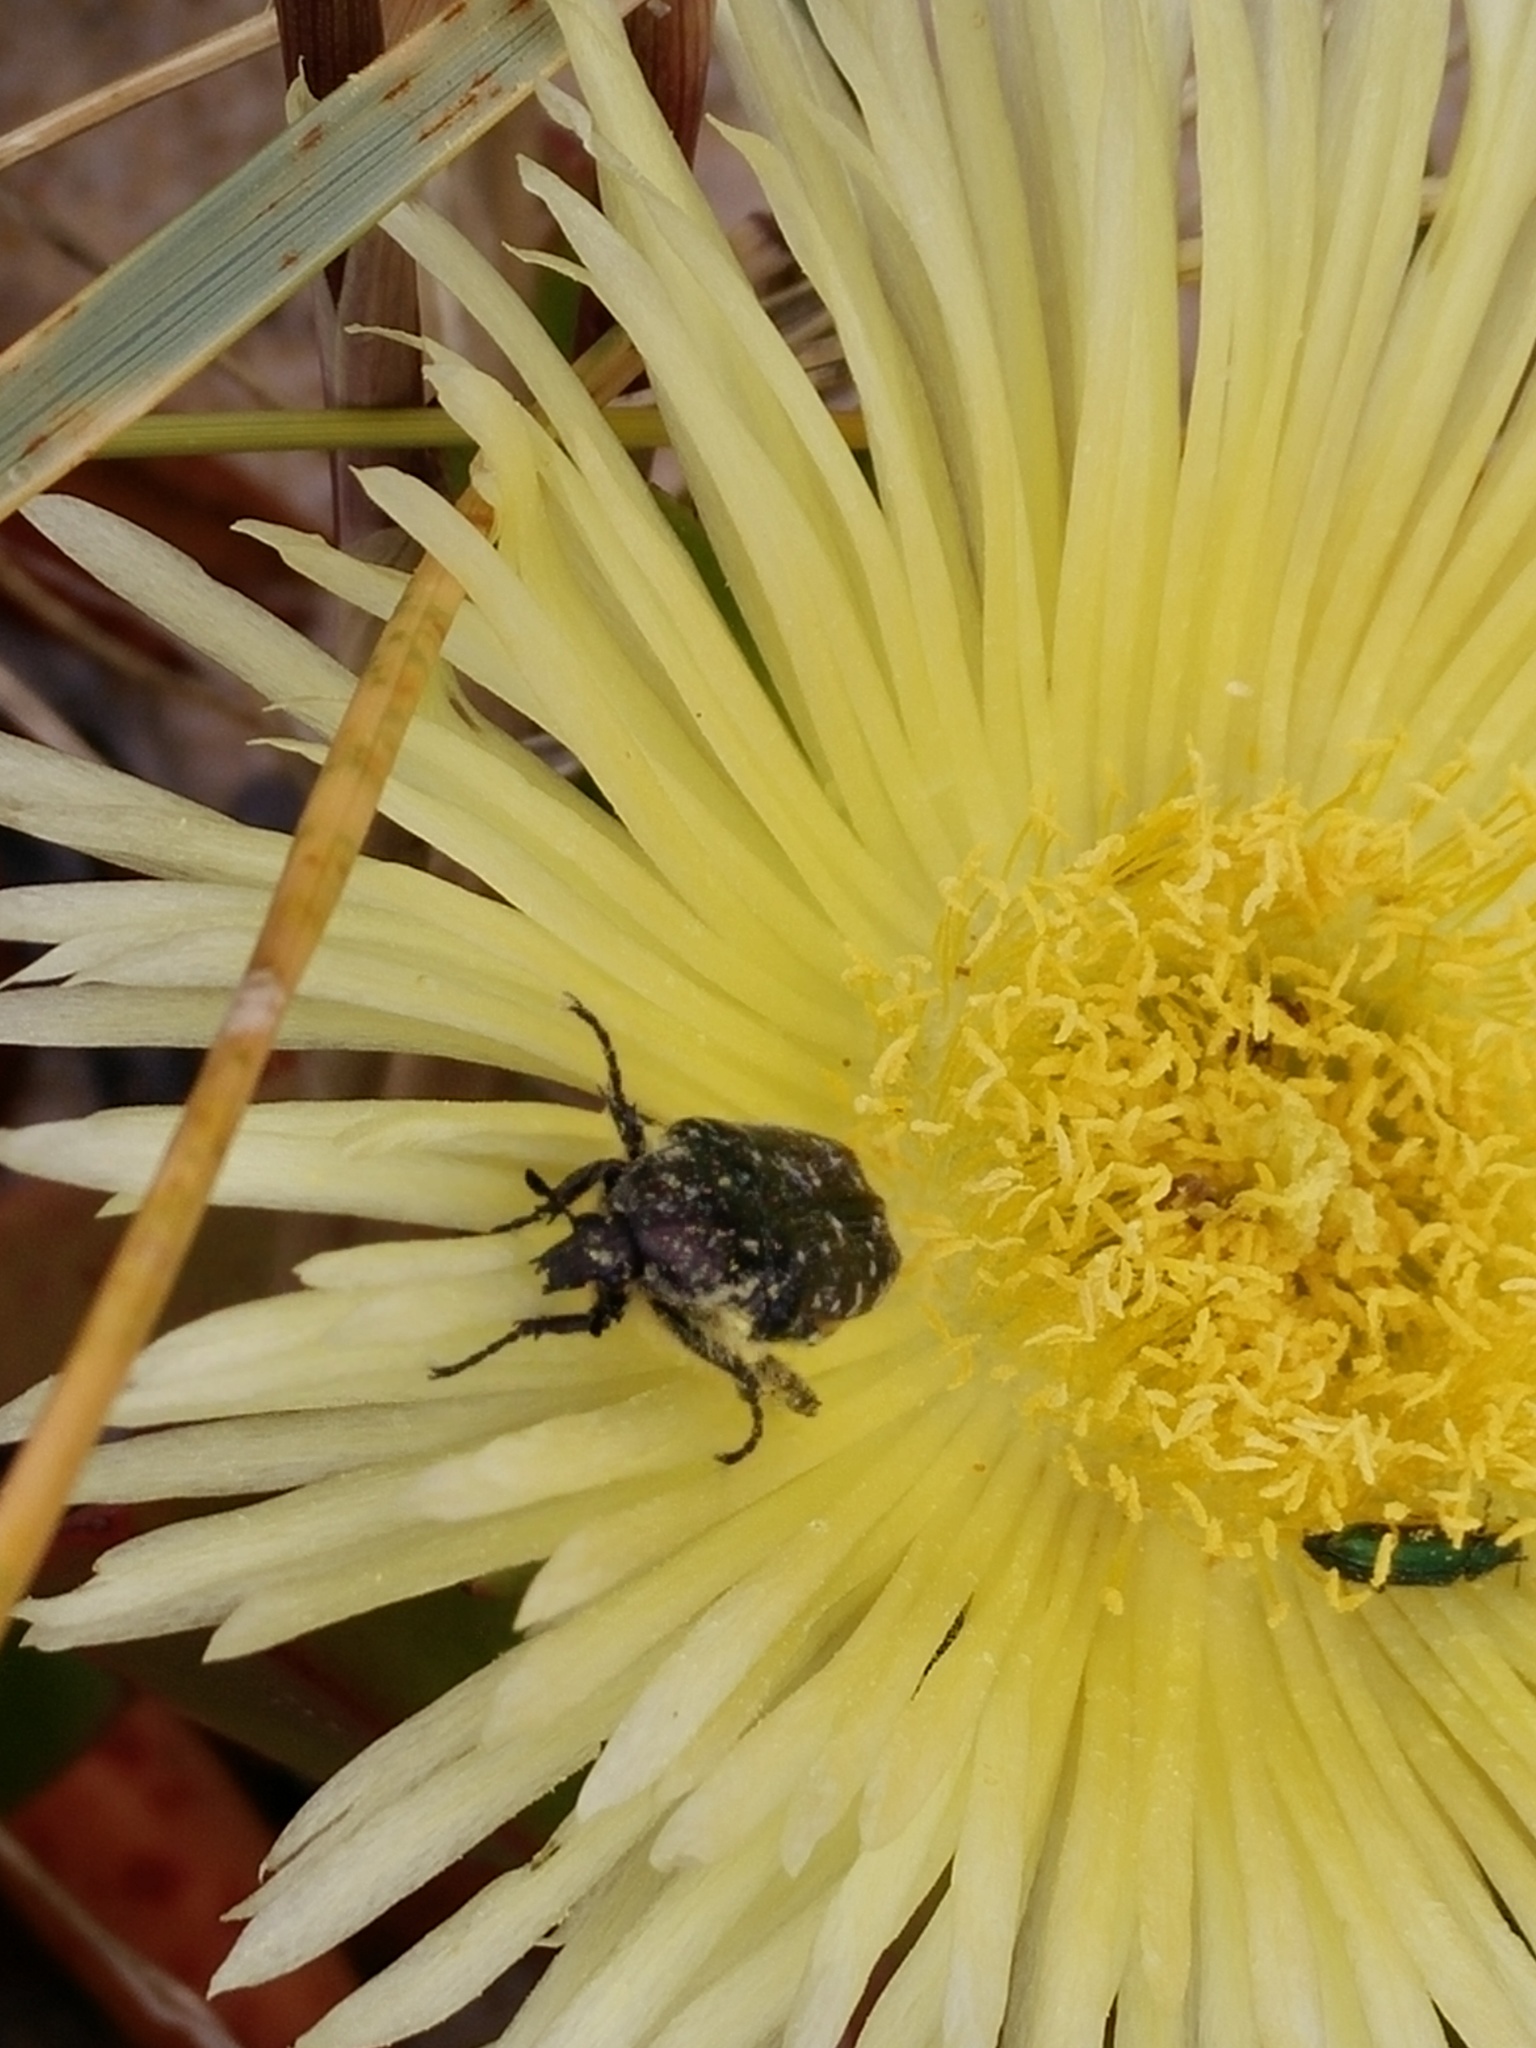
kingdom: Animalia
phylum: Arthropoda
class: Insecta
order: Coleoptera
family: Scarabaeidae
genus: Oxythyrea
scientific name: Oxythyrea funesta
